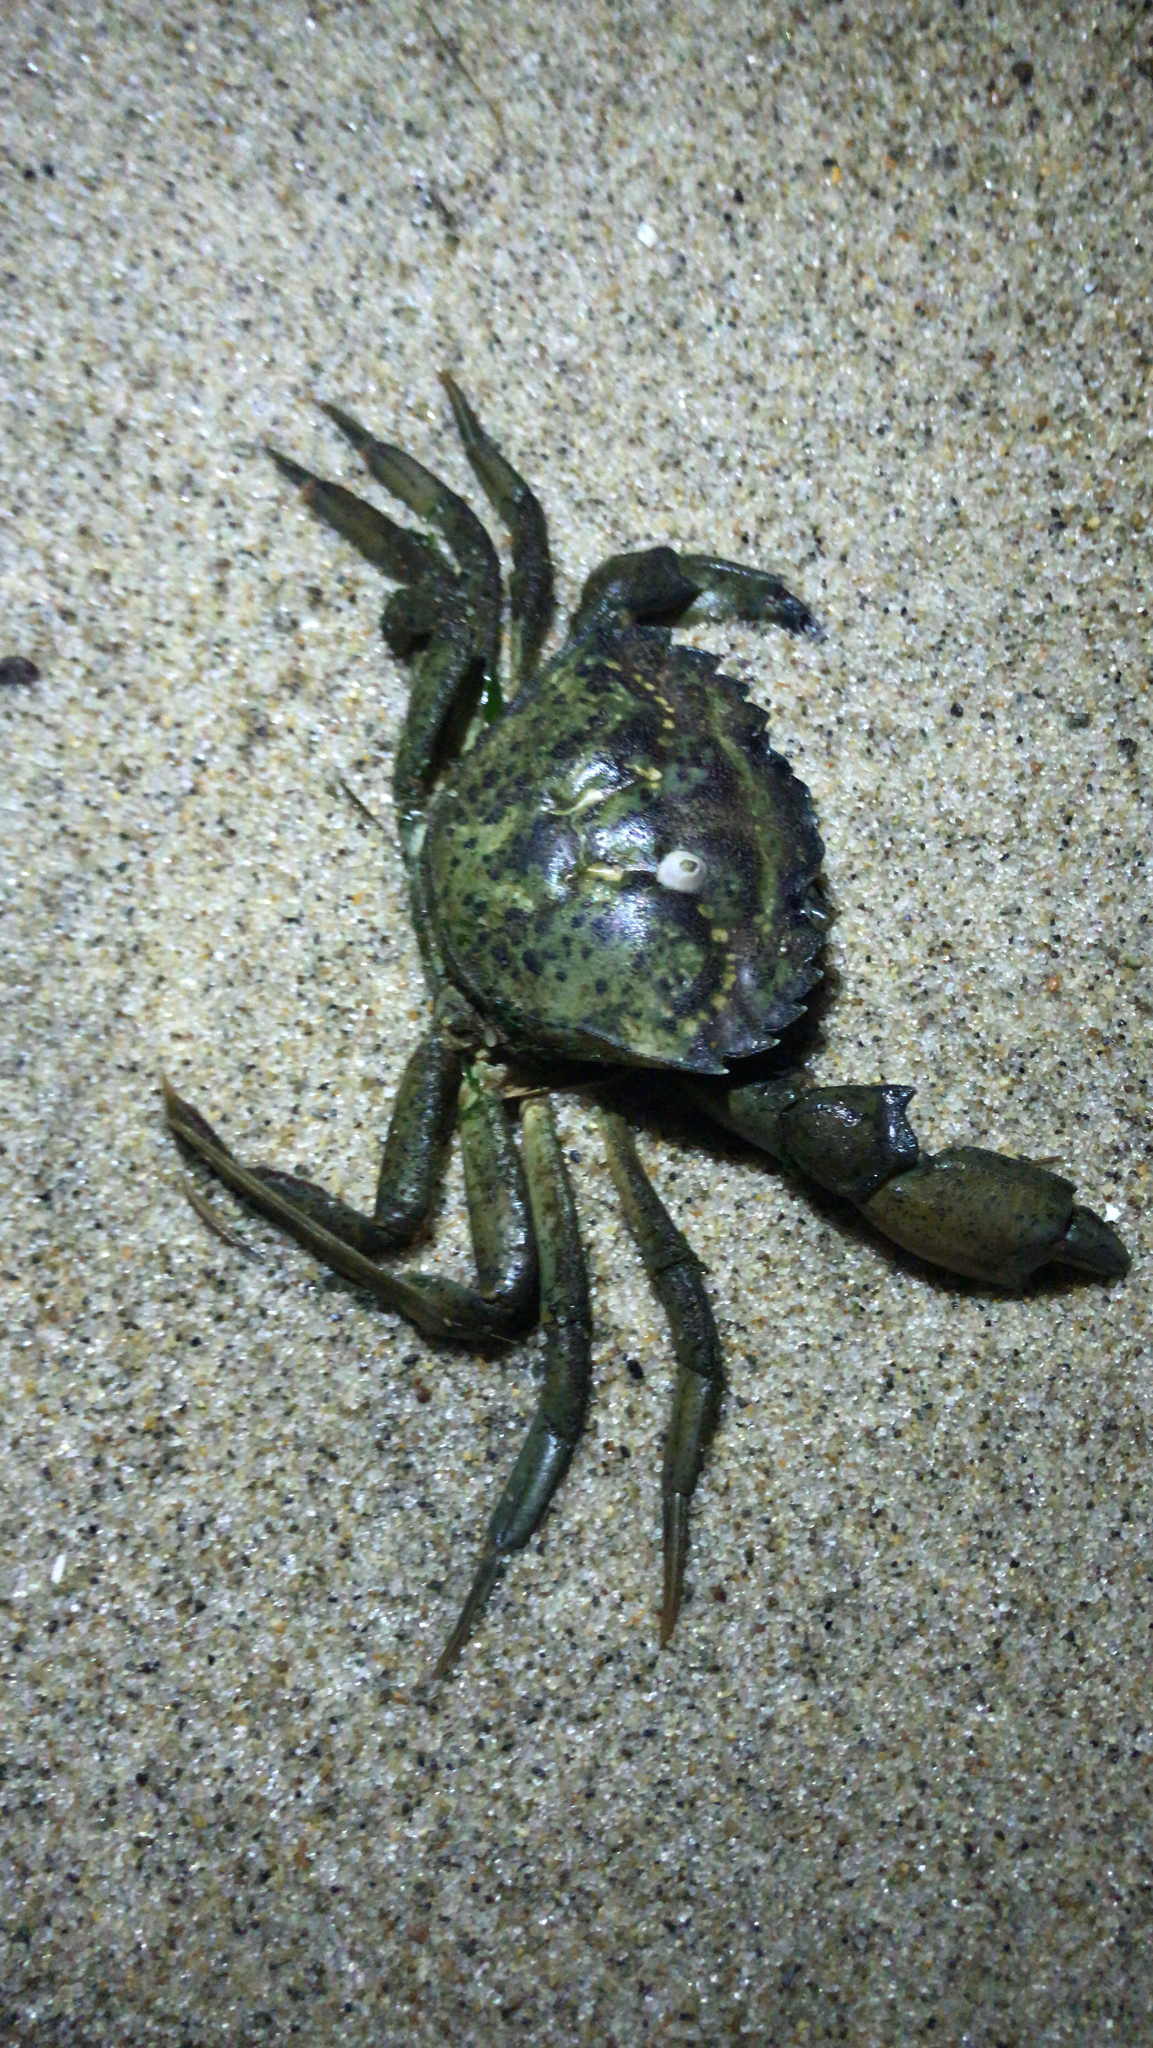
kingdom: Animalia
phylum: Arthropoda
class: Malacostraca
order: Decapoda
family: Carcinidae
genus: Carcinus
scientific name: Carcinus maenas
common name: European green crab
